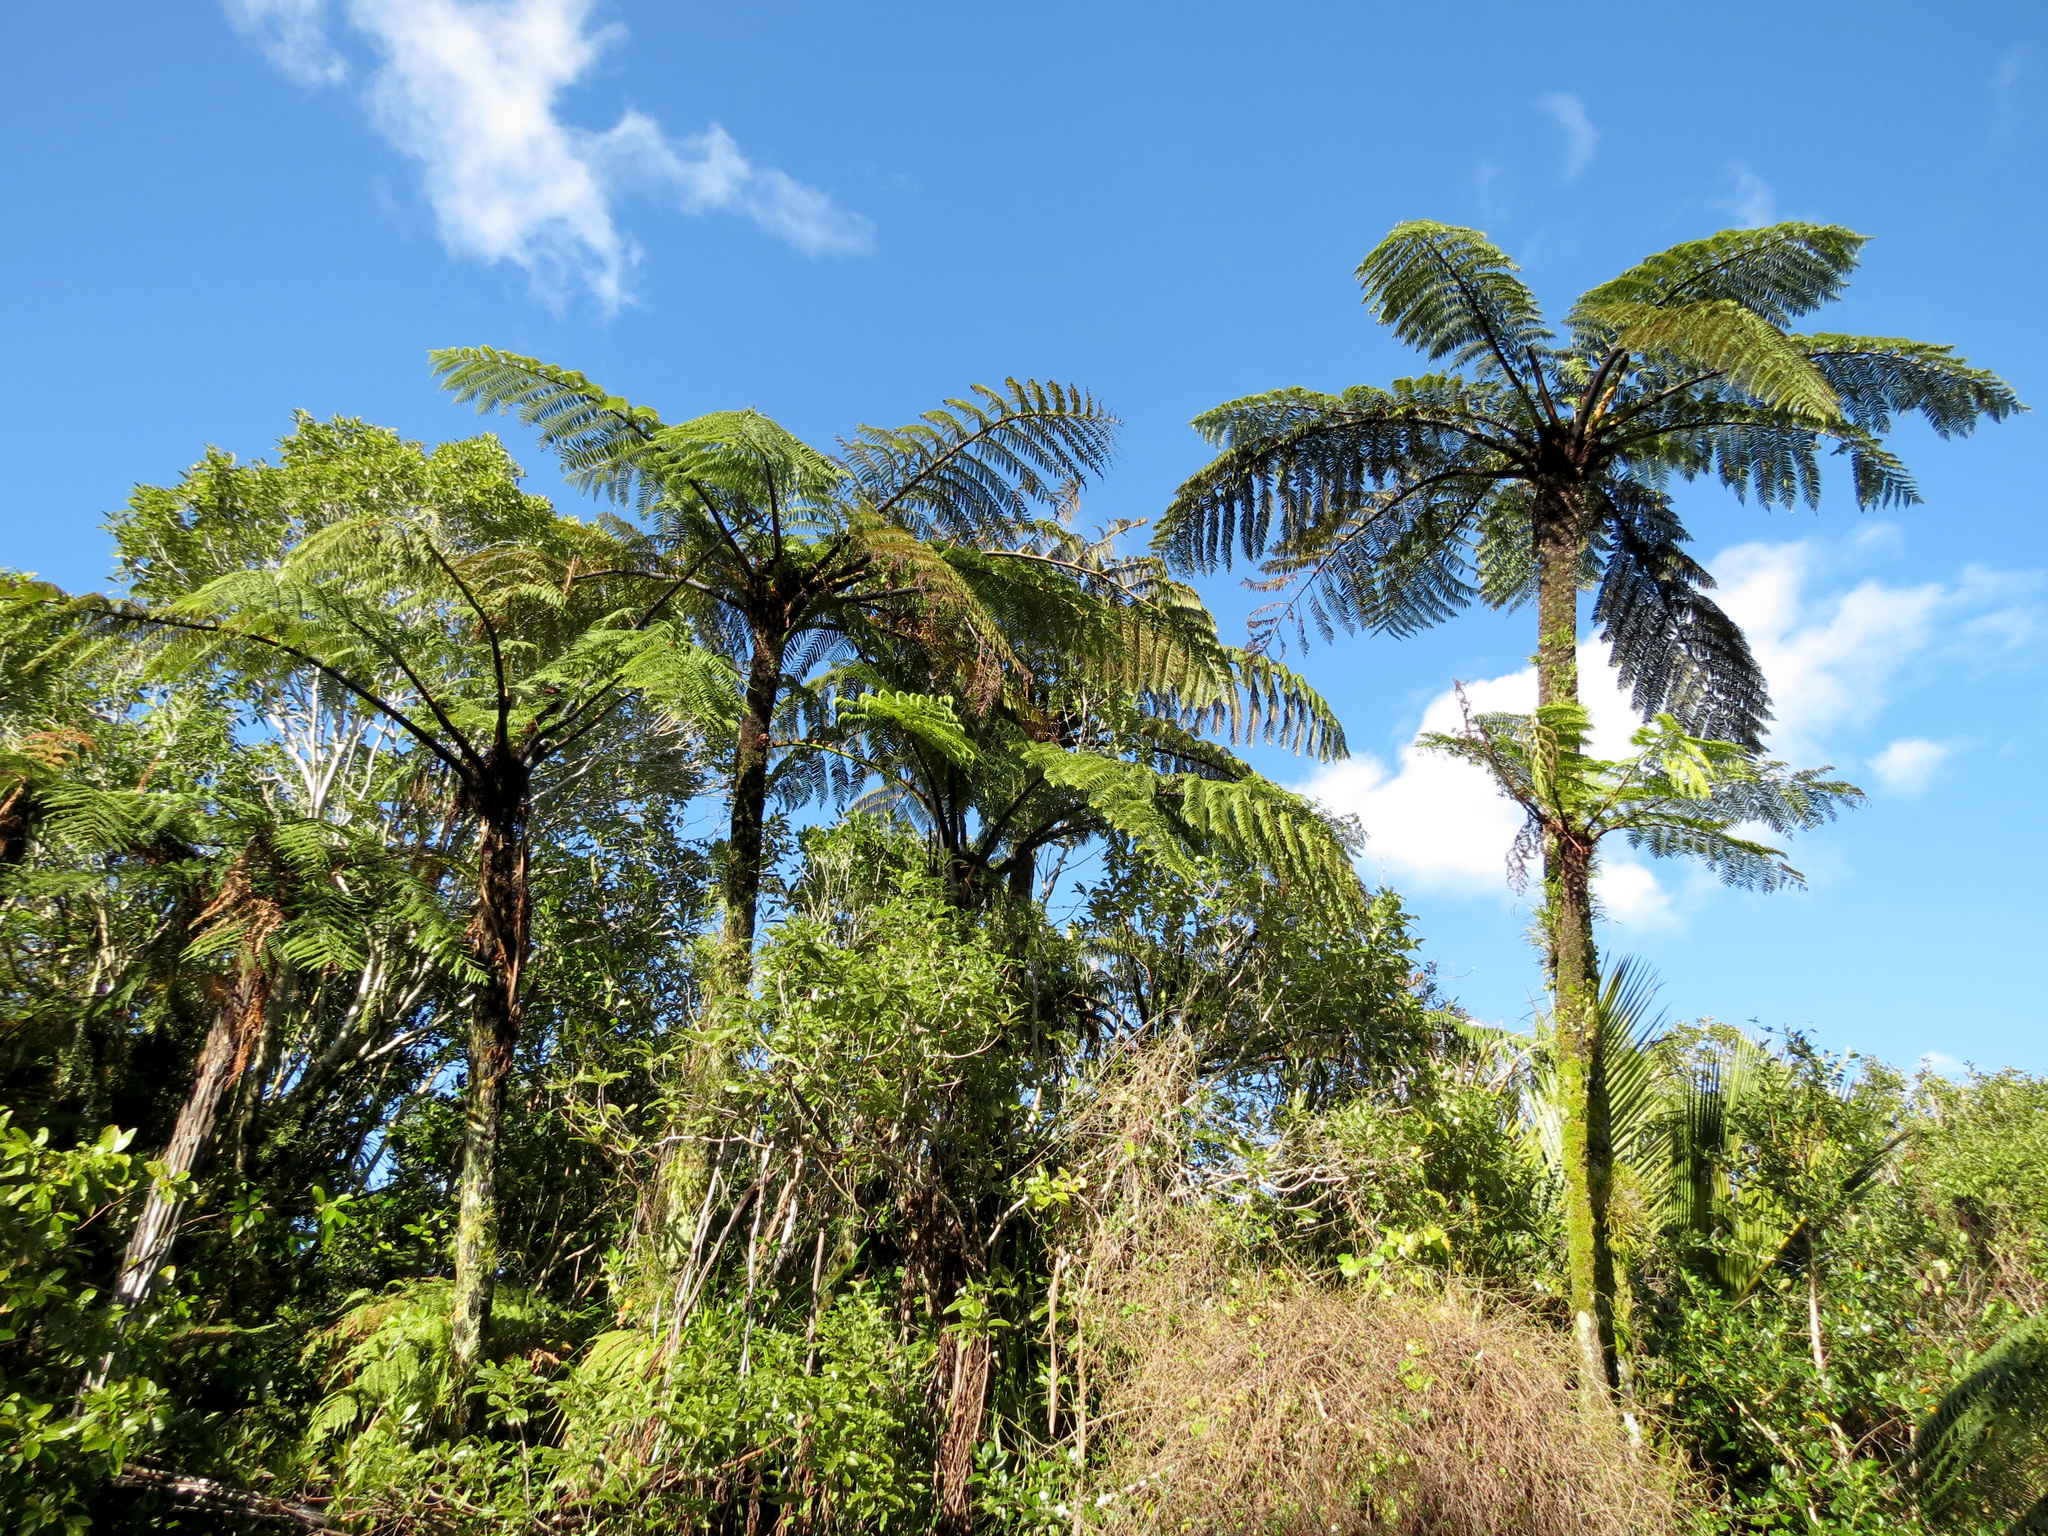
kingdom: Plantae
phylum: Tracheophyta
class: Polypodiopsida
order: Cyatheales
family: Cyatheaceae
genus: Sphaeropteris
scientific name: Sphaeropteris medullaris
